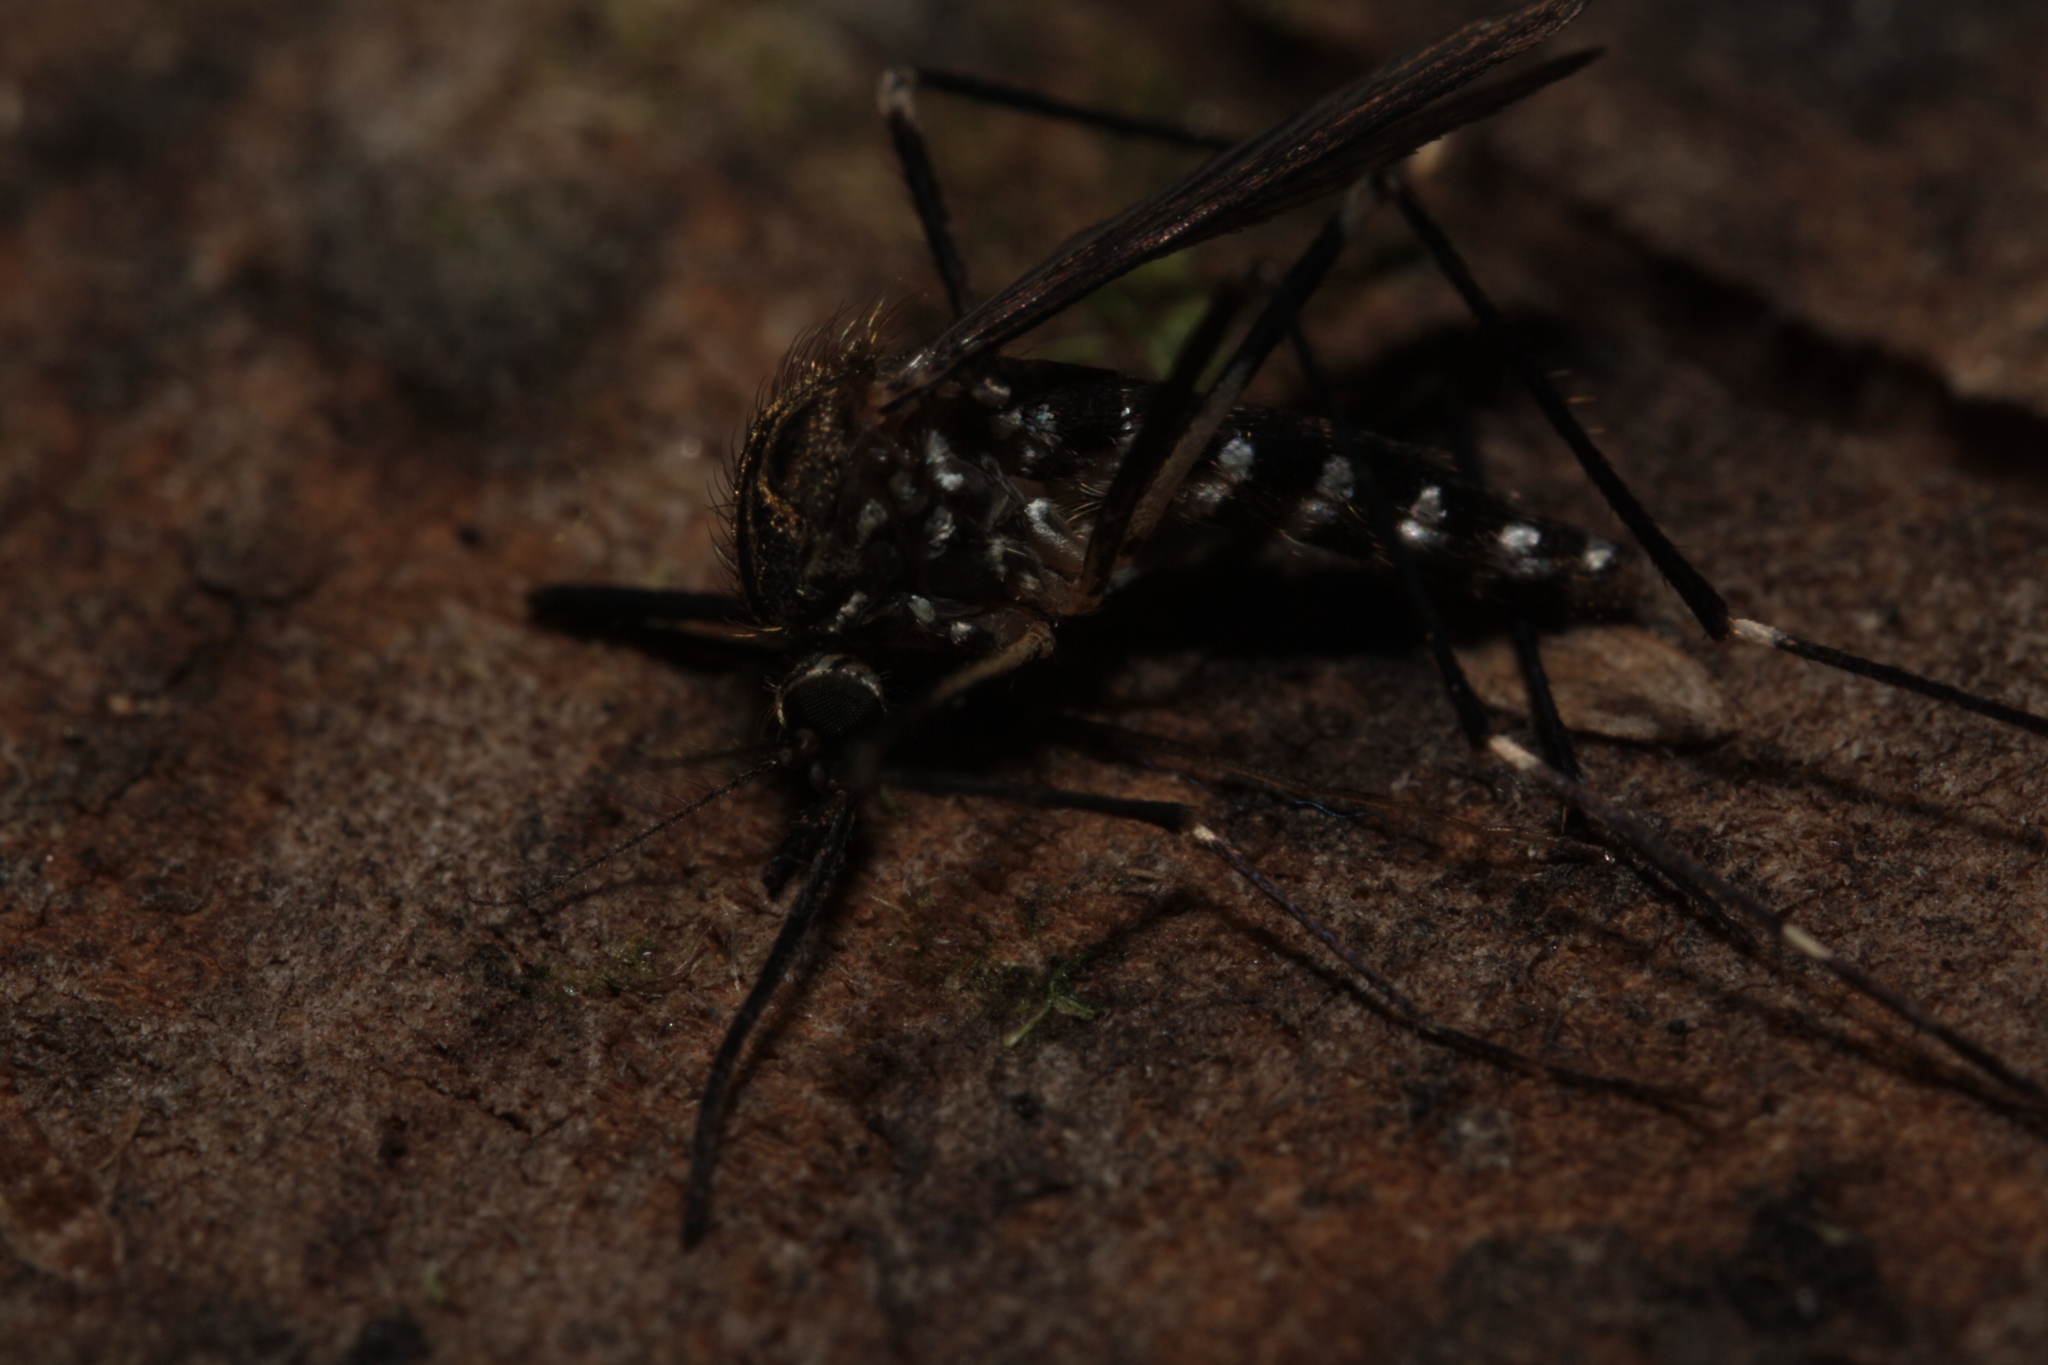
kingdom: Animalia
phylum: Arthropoda
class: Insecta
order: Diptera
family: Culicidae
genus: Aedes
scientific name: Aedes japonicus
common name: Asian bush mosquito
